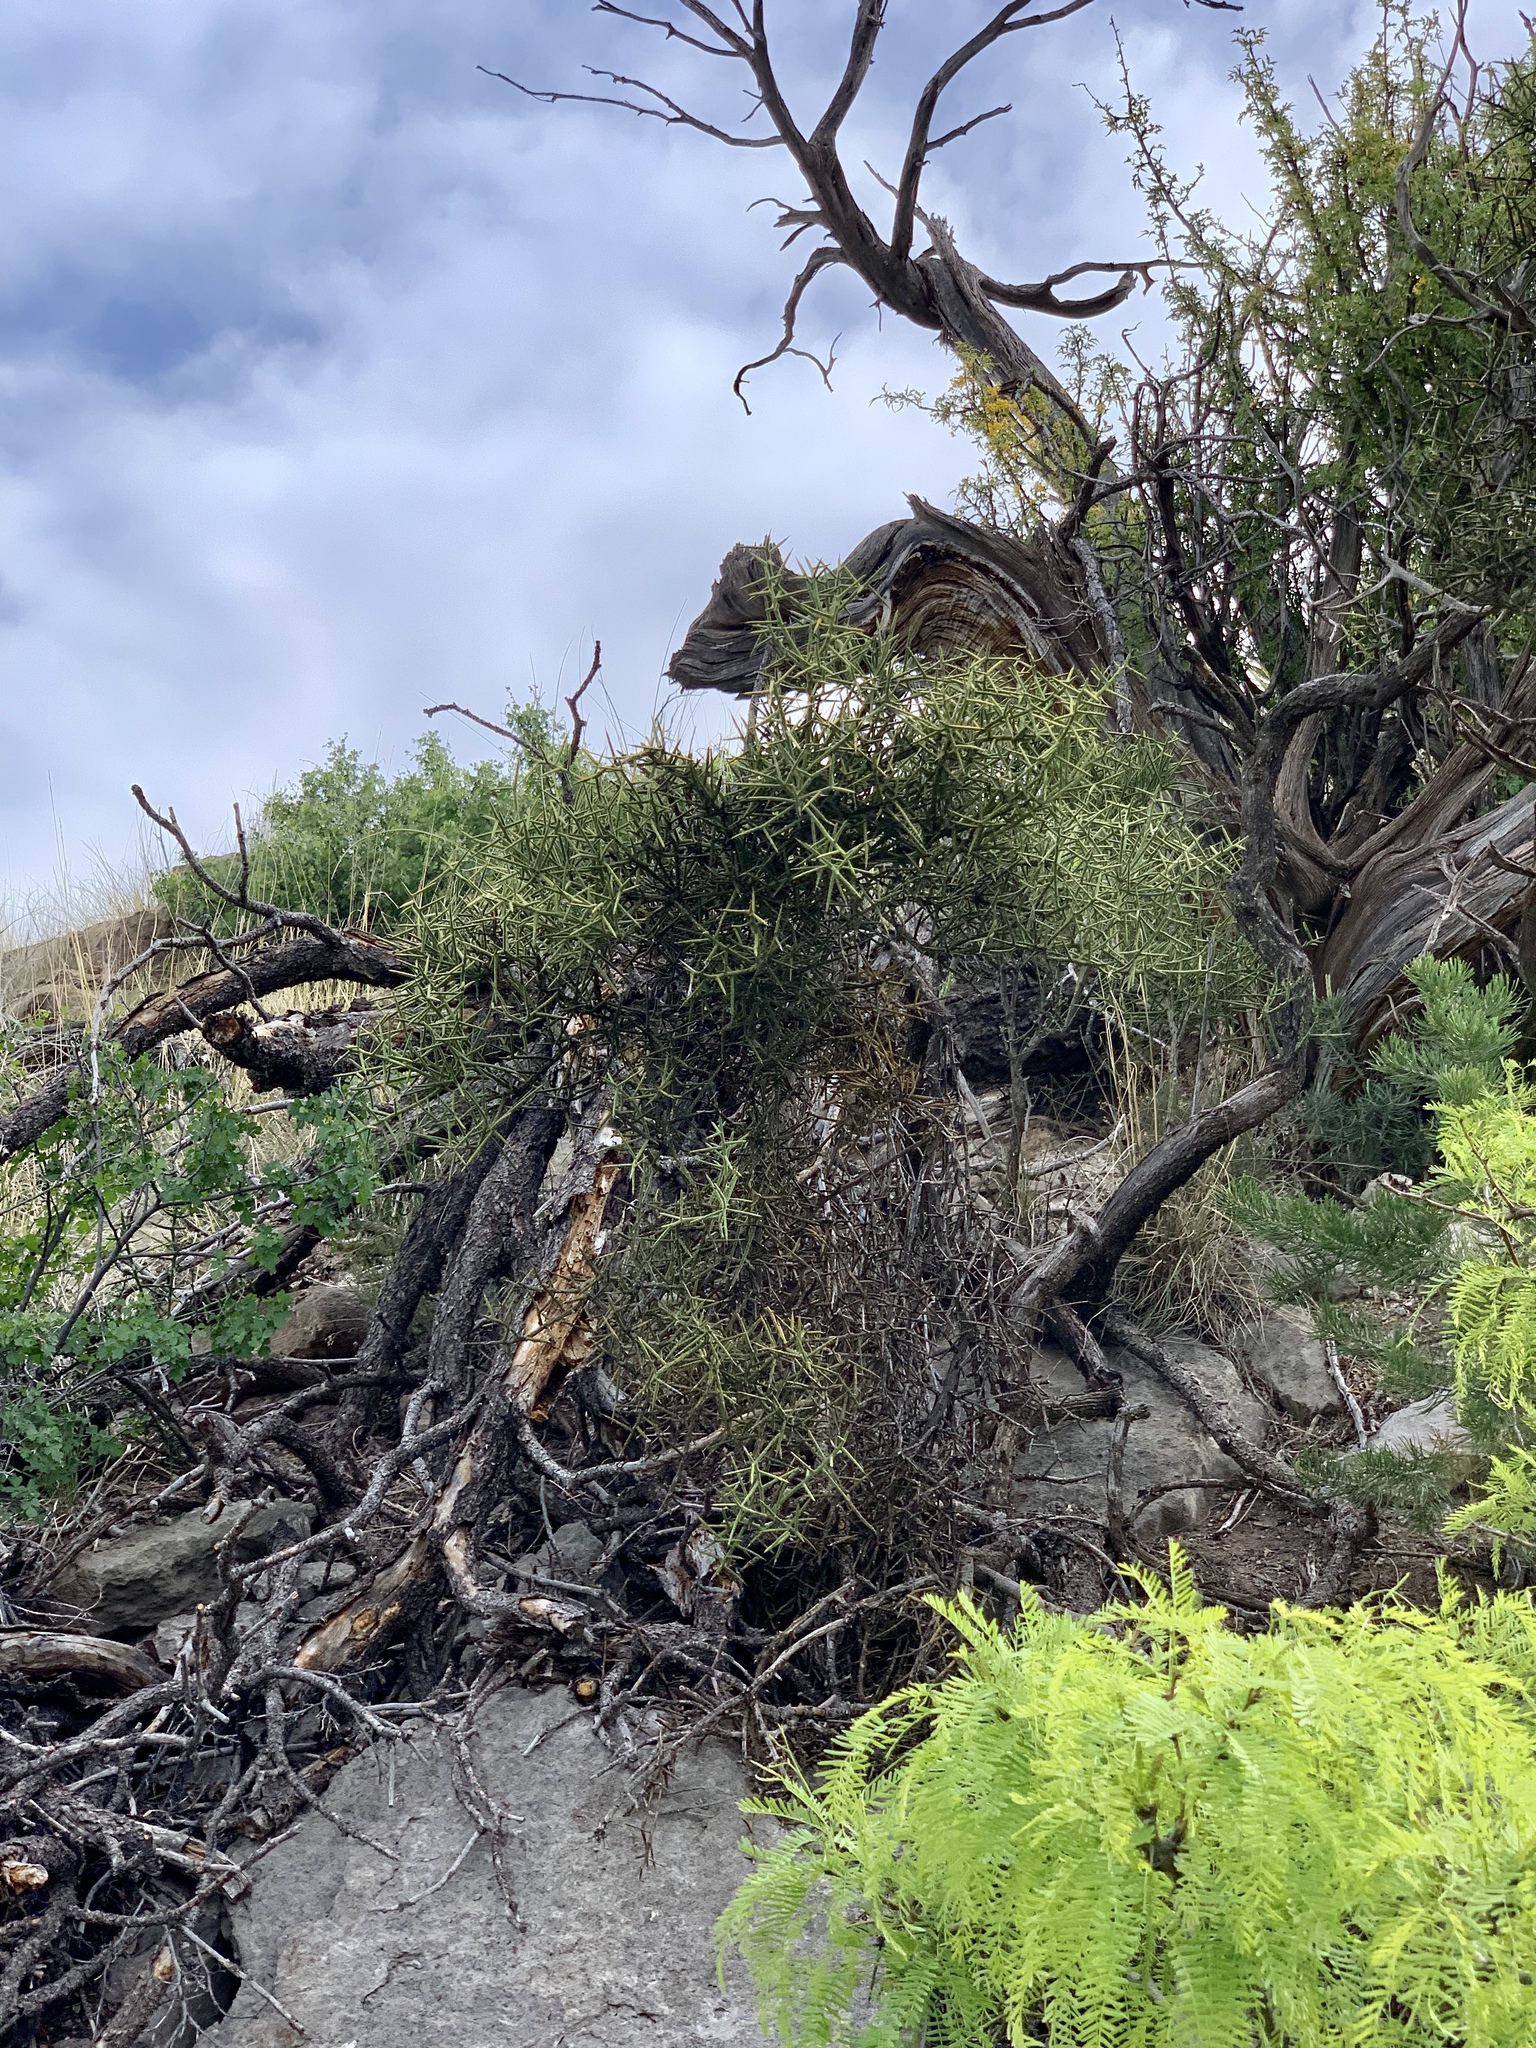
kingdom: Plantae
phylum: Tracheophyta
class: Magnoliopsida
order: Brassicales
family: Koeberliniaceae
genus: Koeberlinia
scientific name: Koeberlinia spinosa
